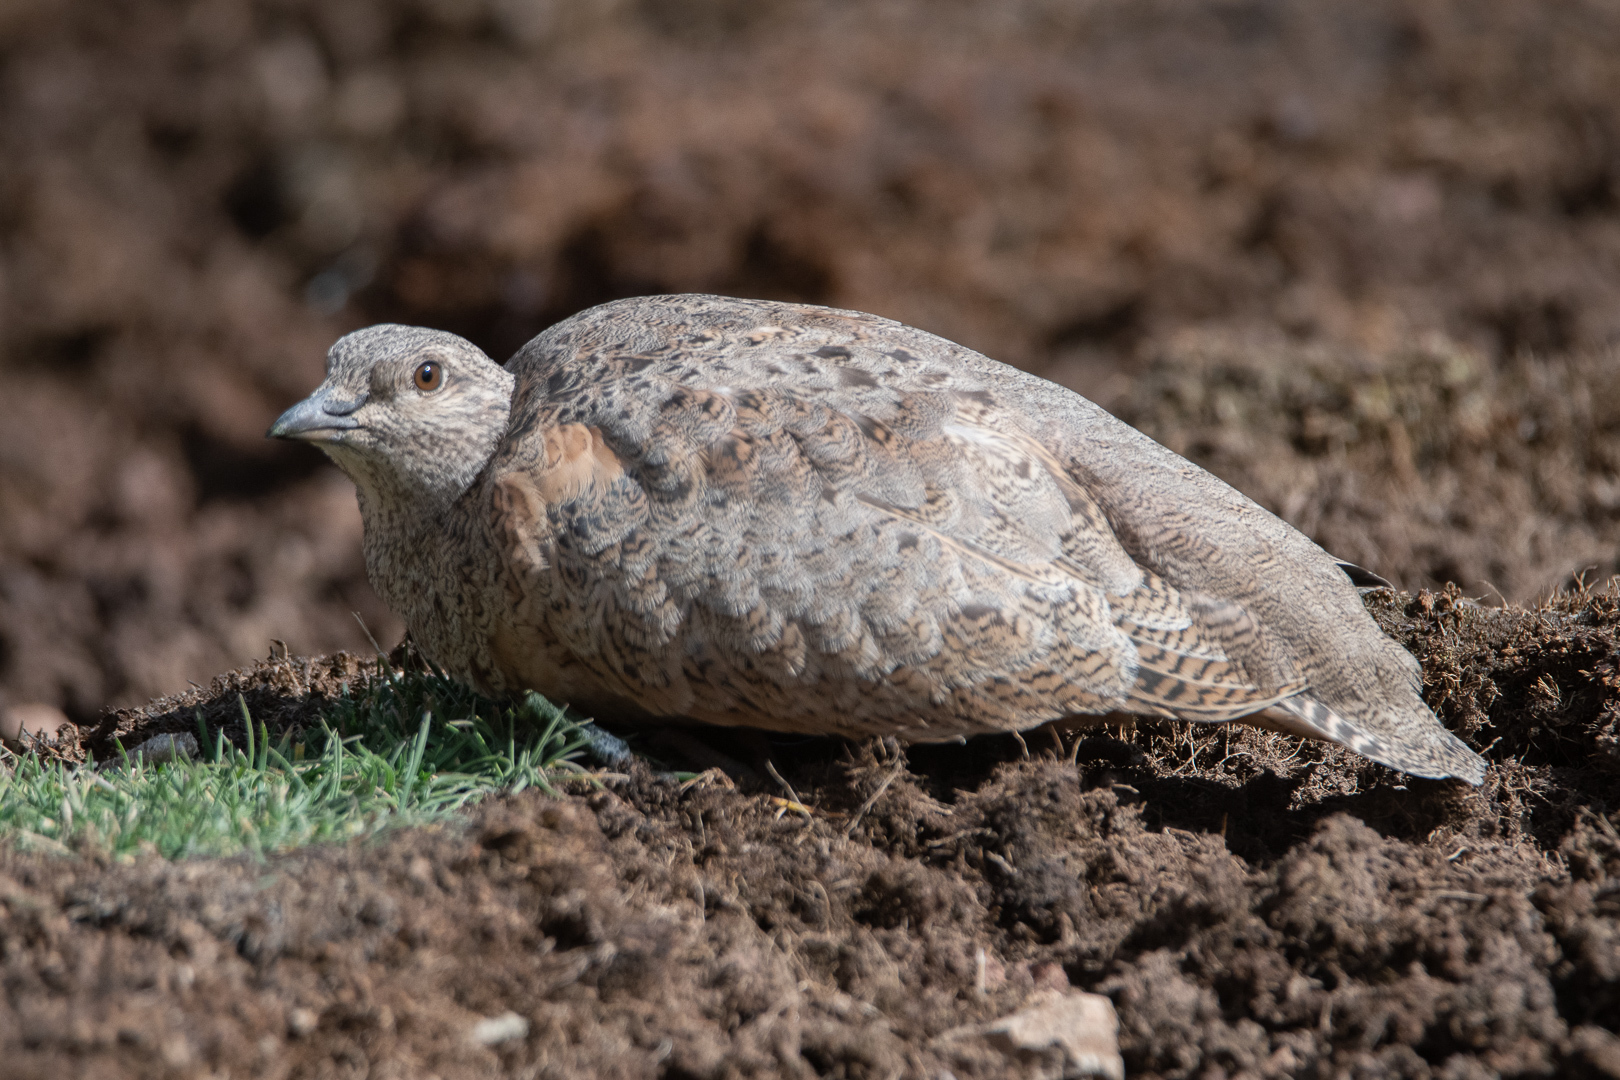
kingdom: Animalia
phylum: Chordata
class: Aves
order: Charadriiformes
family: Thinocoridae
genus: Attagis
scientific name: Attagis gayi
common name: Rufous-bellied seedsnipe
